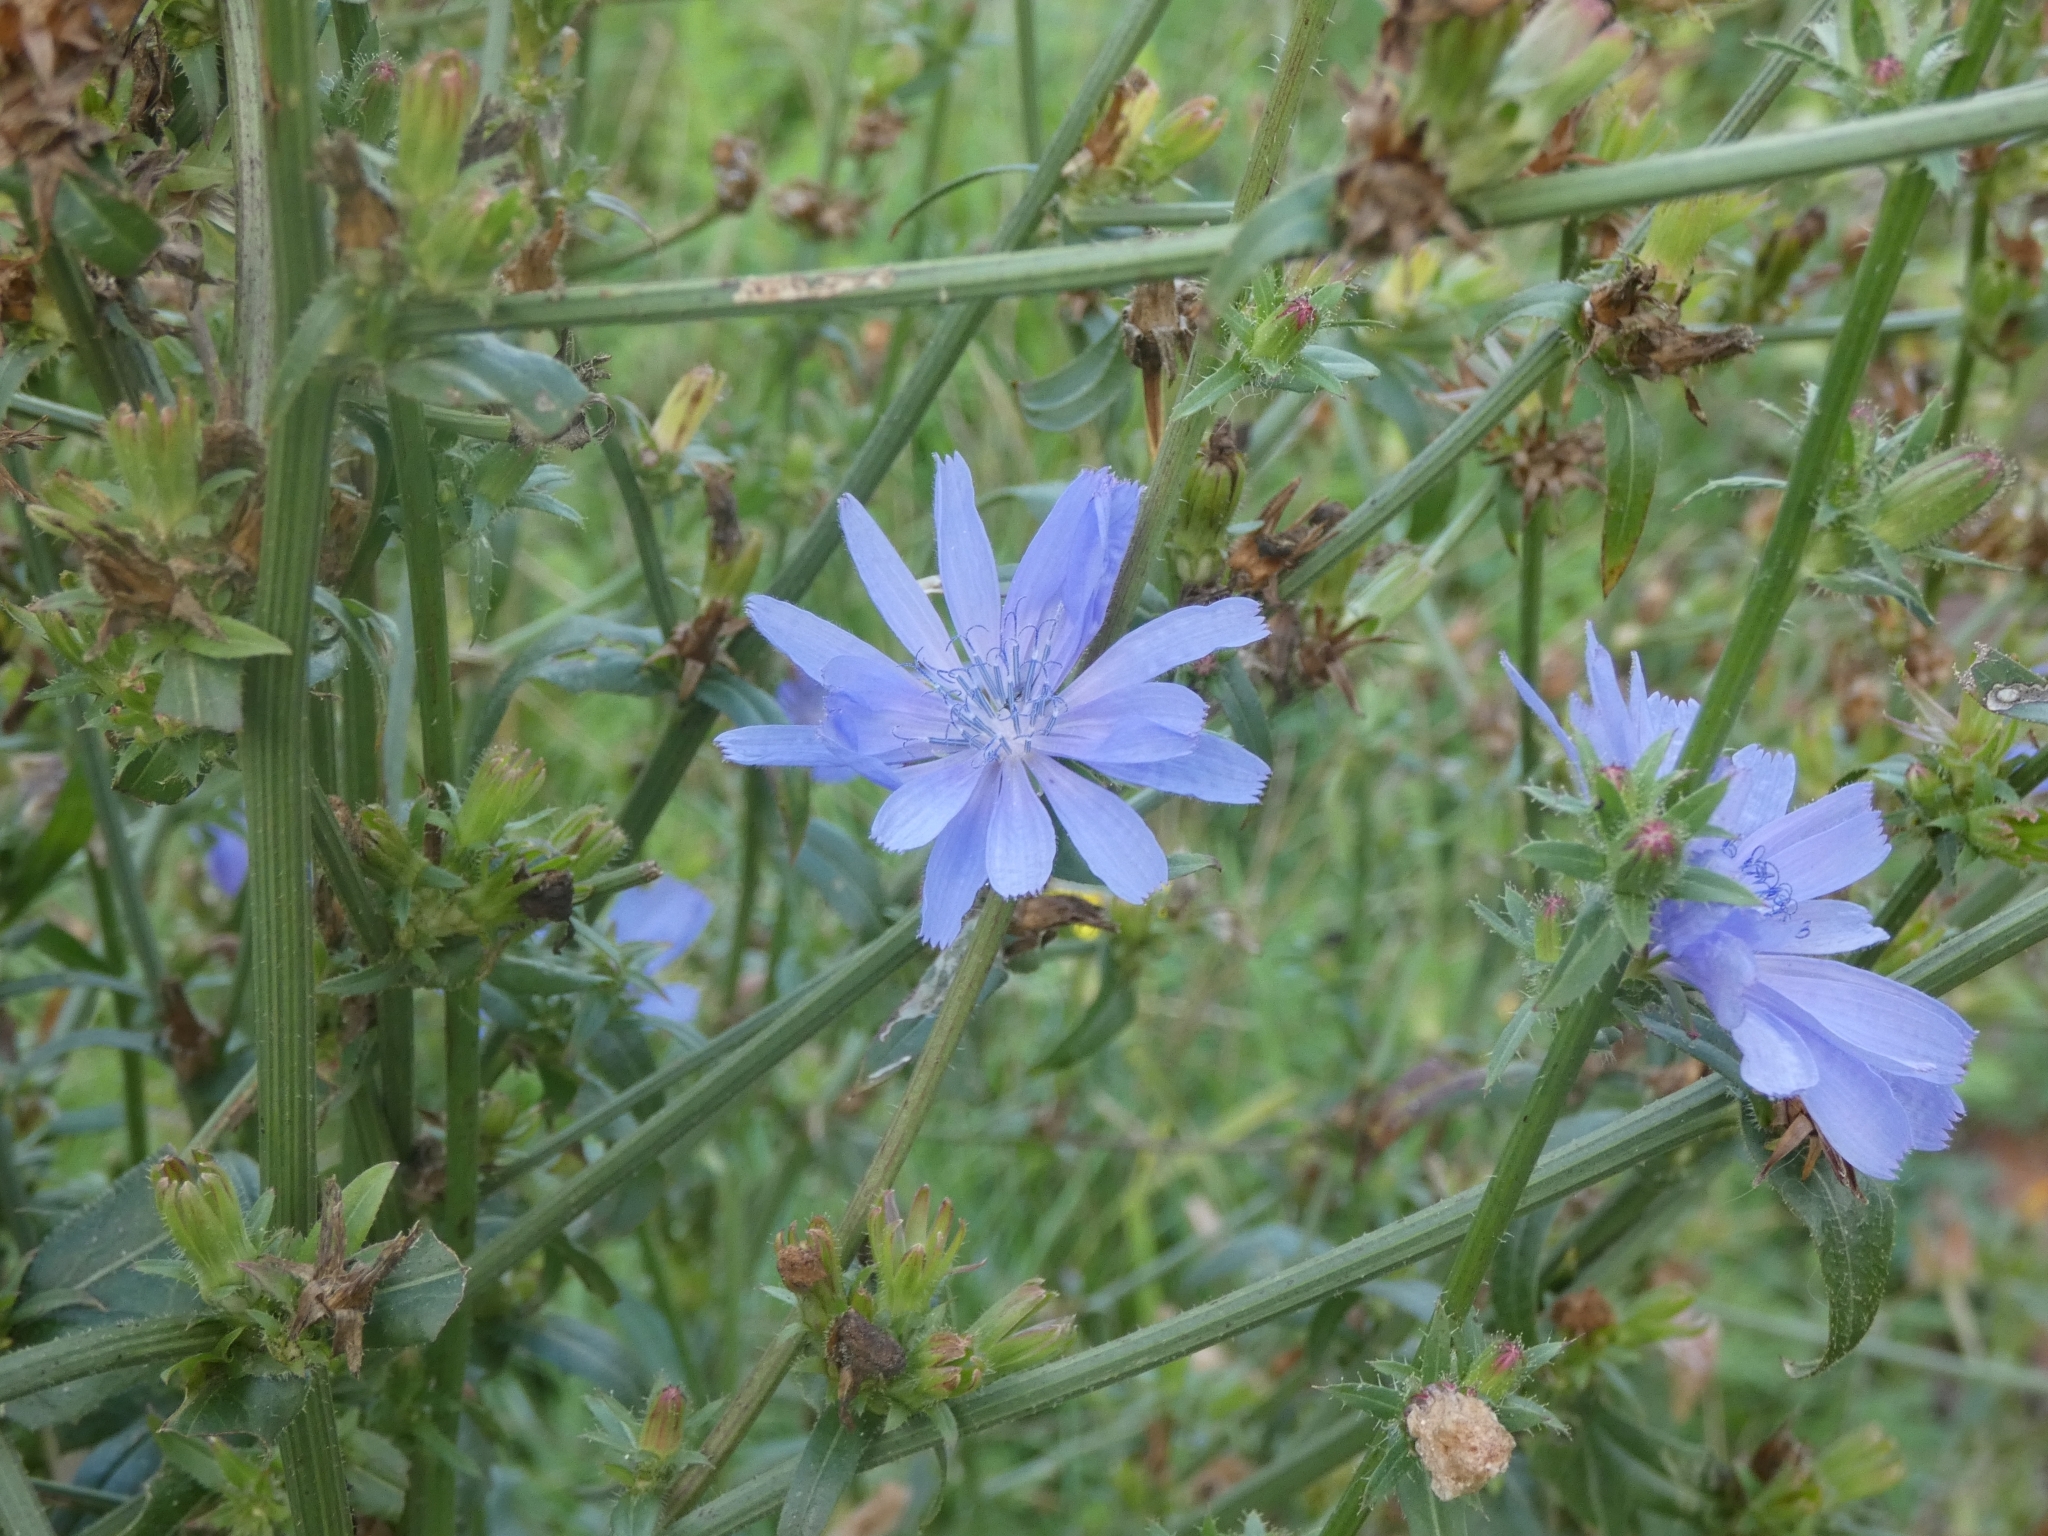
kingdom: Plantae
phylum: Tracheophyta
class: Magnoliopsida
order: Asterales
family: Asteraceae
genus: Cichorium
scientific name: Cichorium intybus
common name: Chicory
